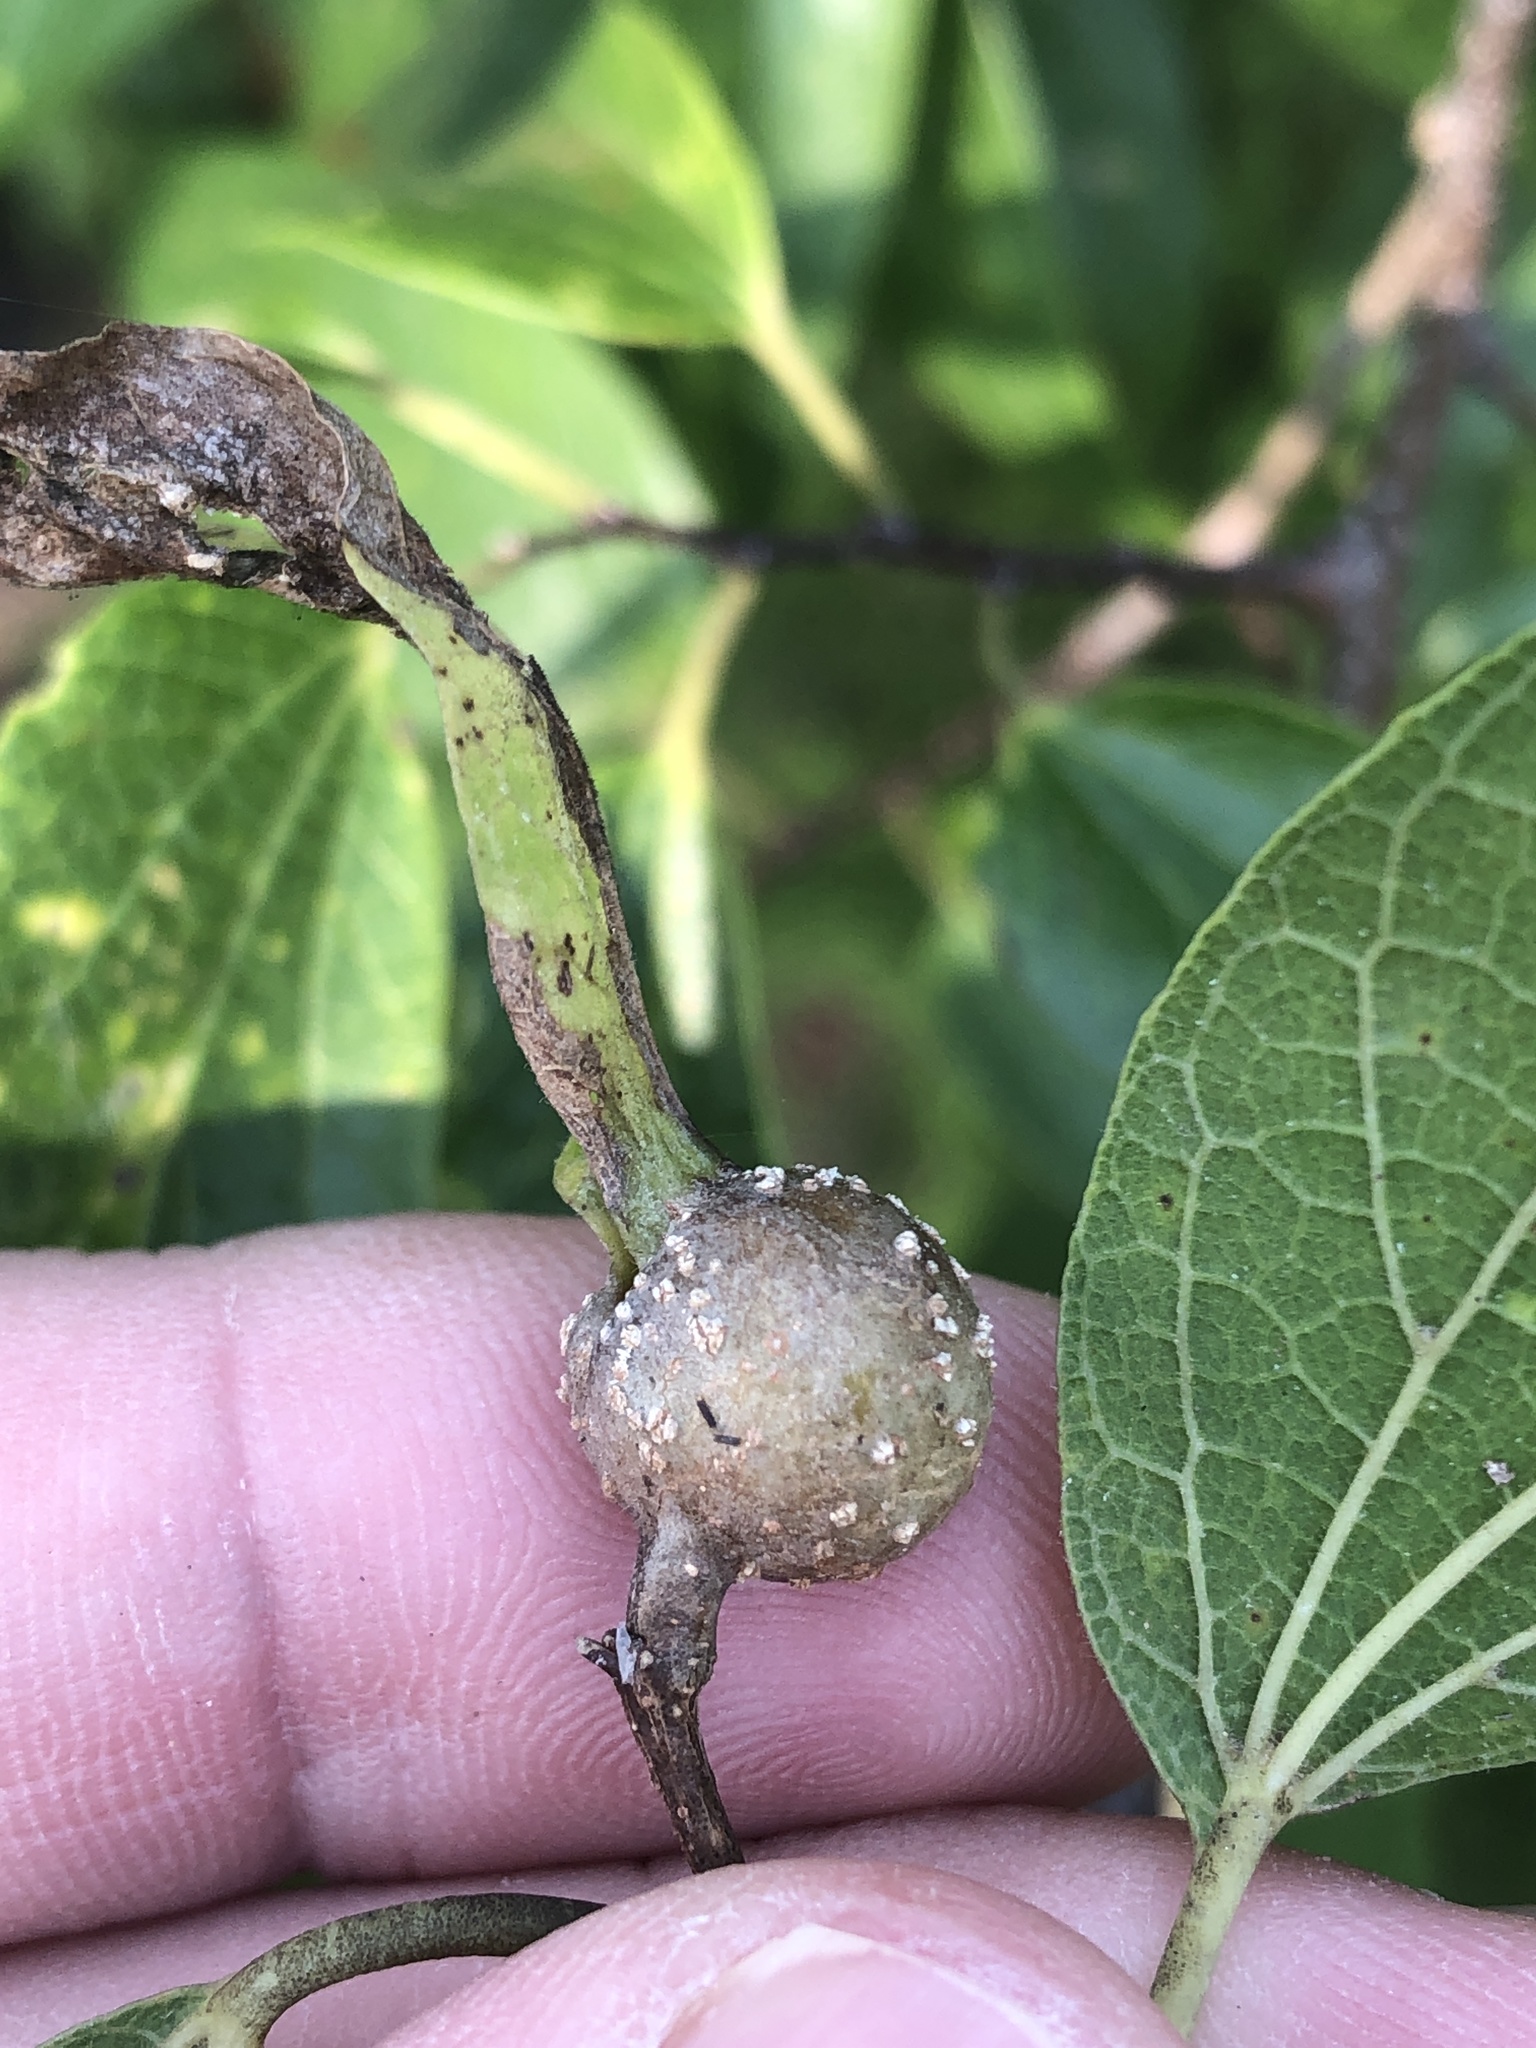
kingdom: Animalia
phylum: Arthropoda
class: Insecta
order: Hemiptera
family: Aphalaridae
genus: Pachypsylla
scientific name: Pachypsylla venusta
